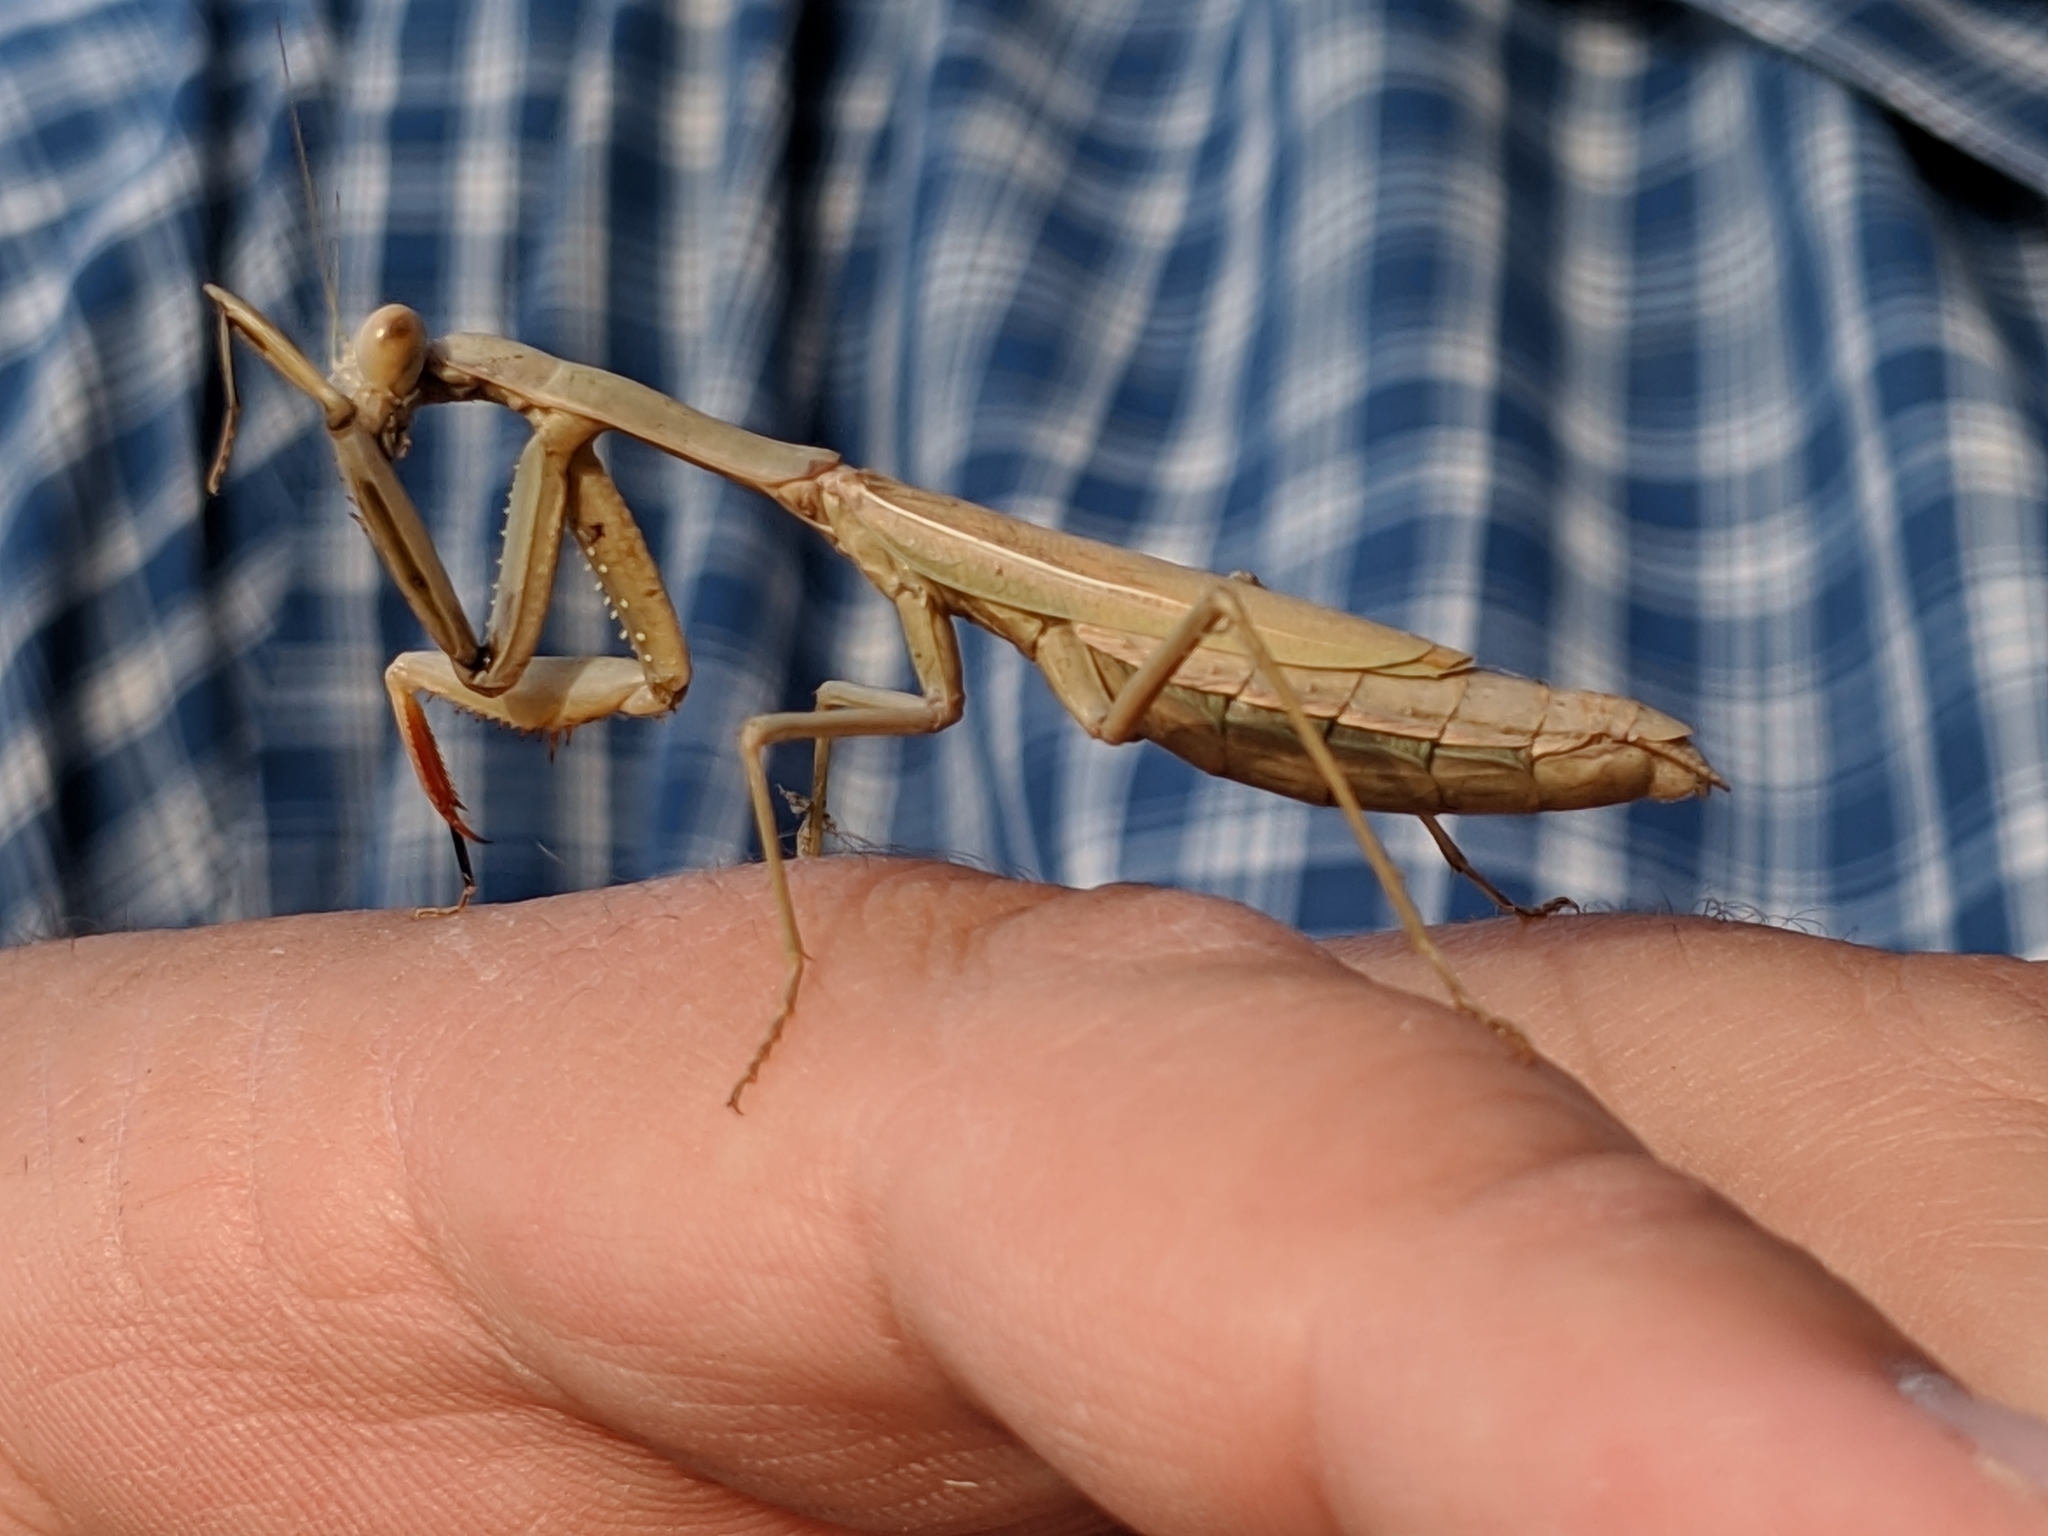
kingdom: Animalia
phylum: Arthropoda
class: Insecta
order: Mantodea
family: Eremiaphilidae
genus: Iris
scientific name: Iris oratoria
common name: Mediterranean mantis
